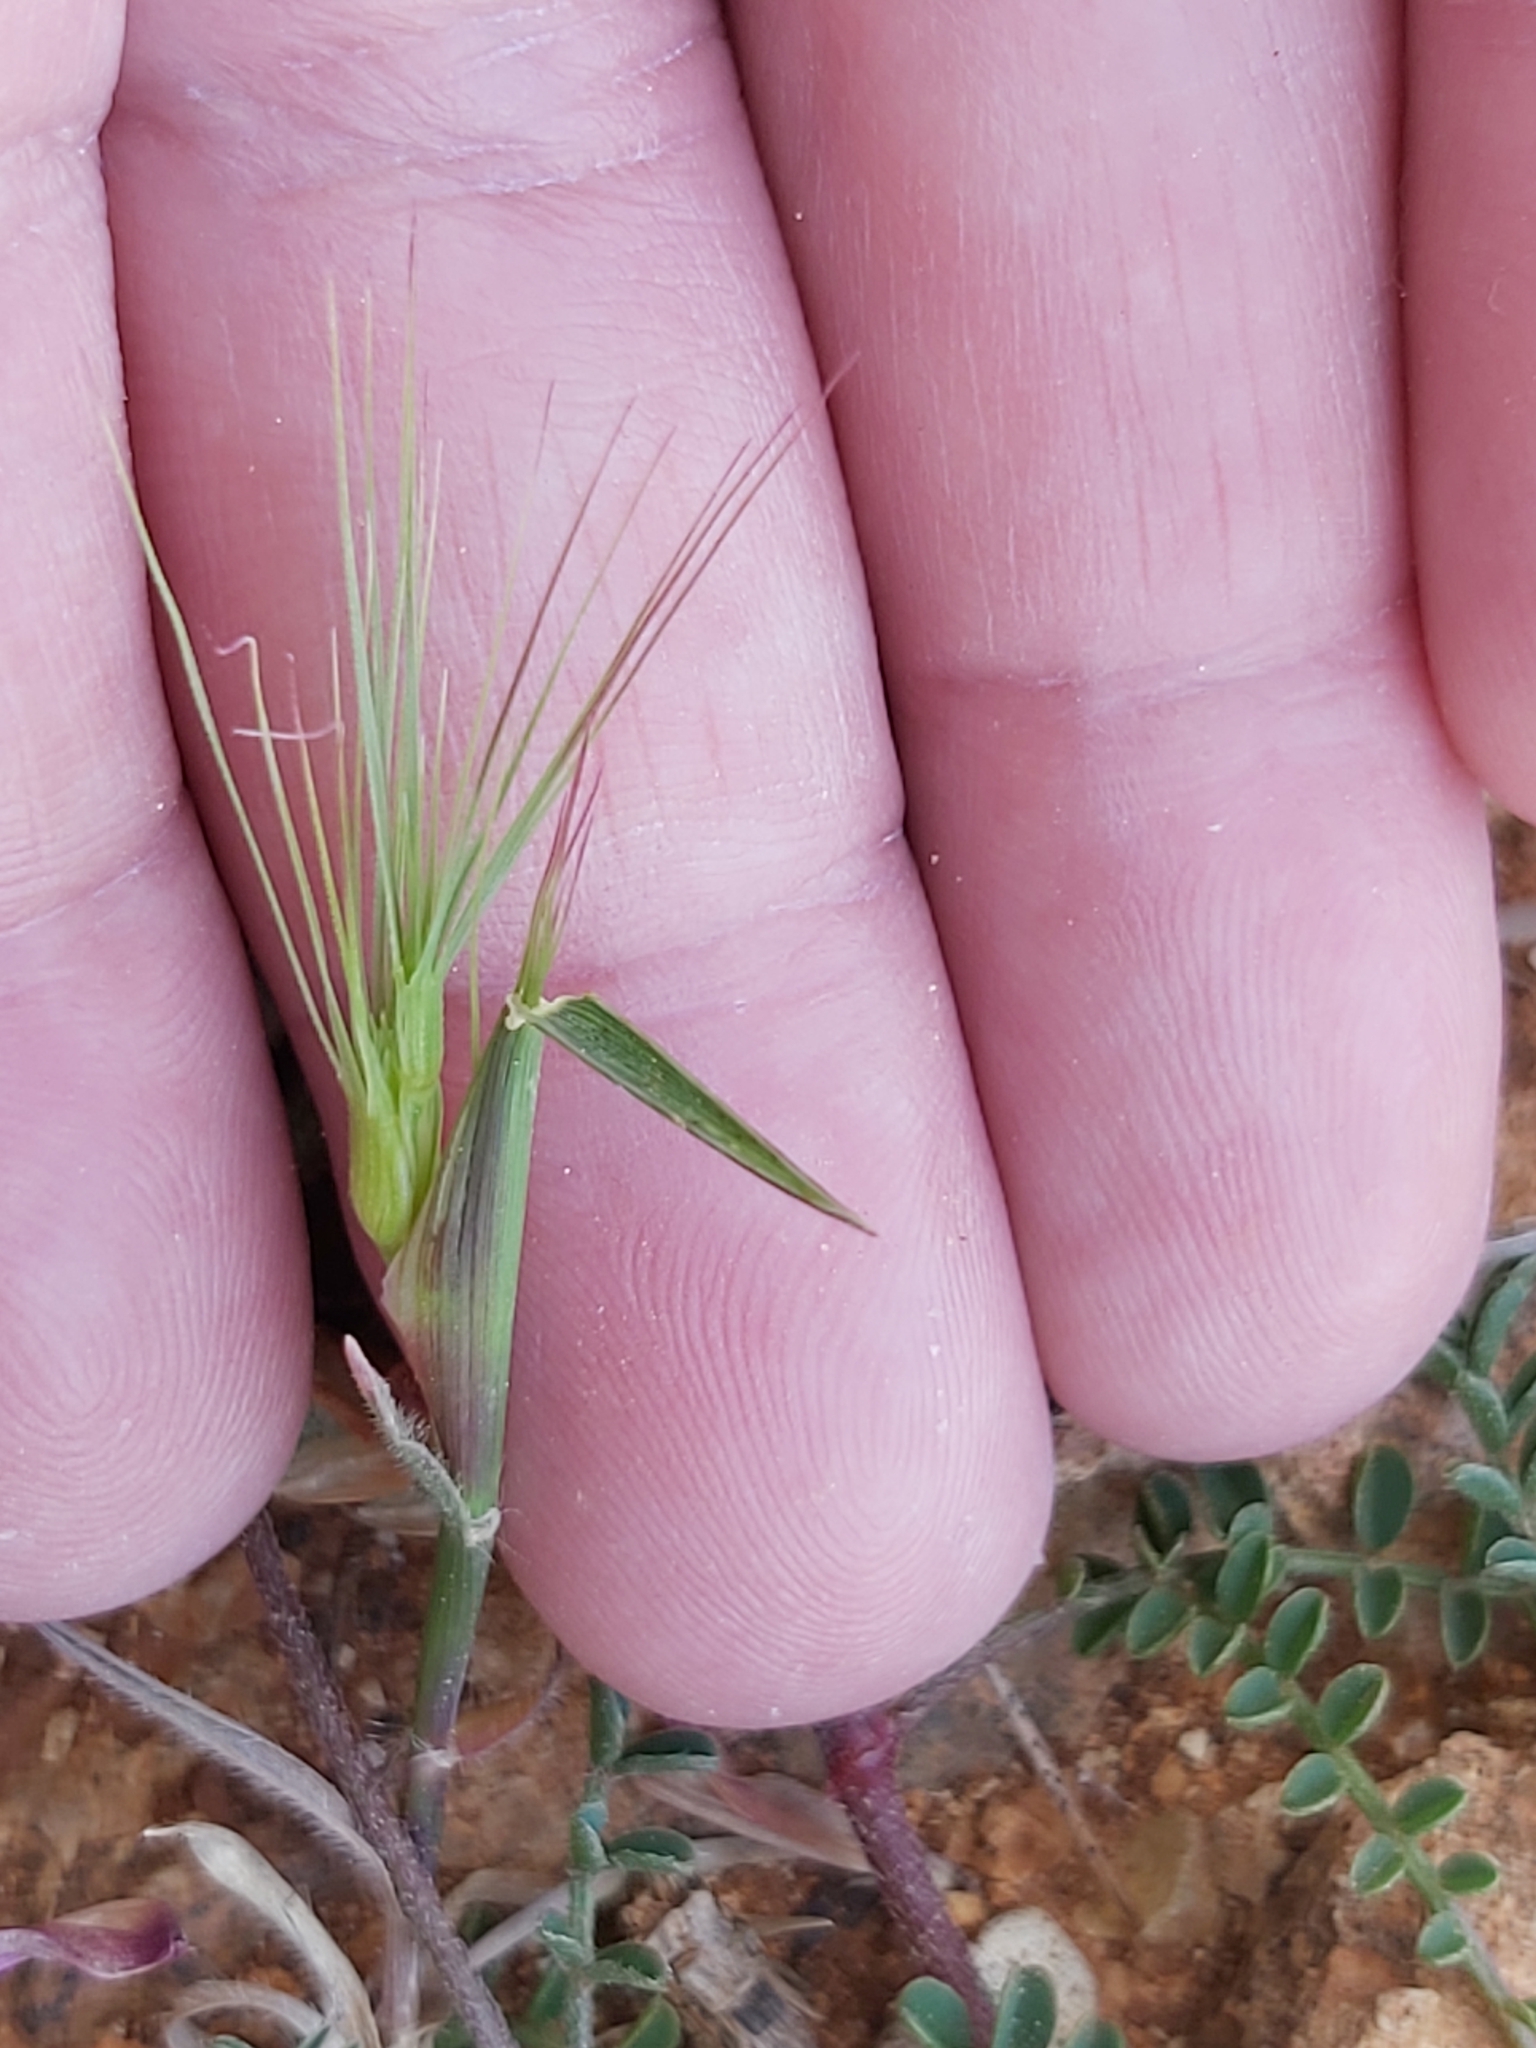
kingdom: Plantae
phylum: Tracheophyta
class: Liliopsida
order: Poales
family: Poaceae
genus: Aegilops
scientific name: Aegilops geniculata
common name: Ovate goat grass
